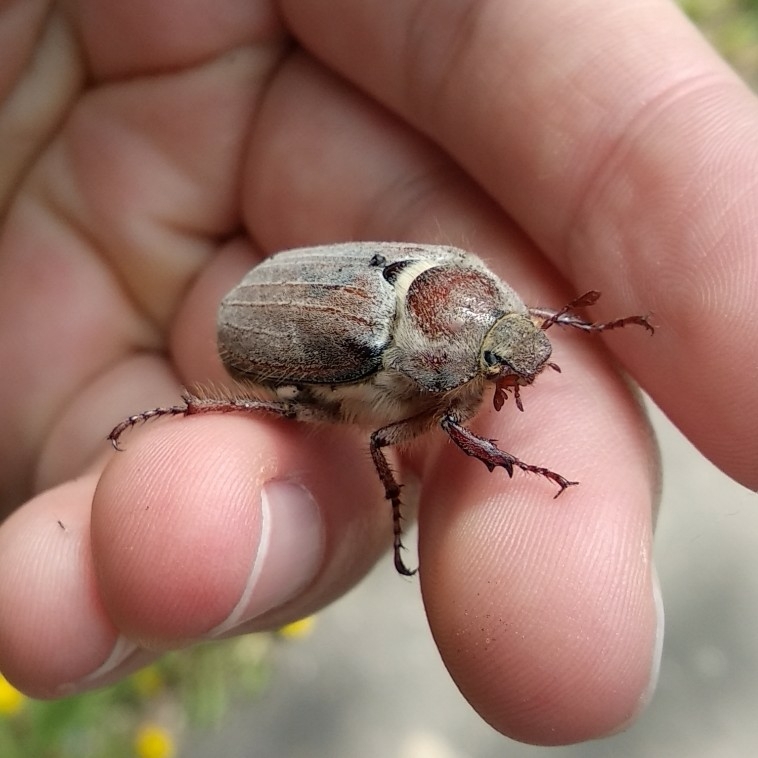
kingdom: Animalia
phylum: Arthropoda
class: Insecta
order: Coleoptera
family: Scarabaeidae
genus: Melolontha
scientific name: Melolontha hippocastani
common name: Chestnut cockchafer
